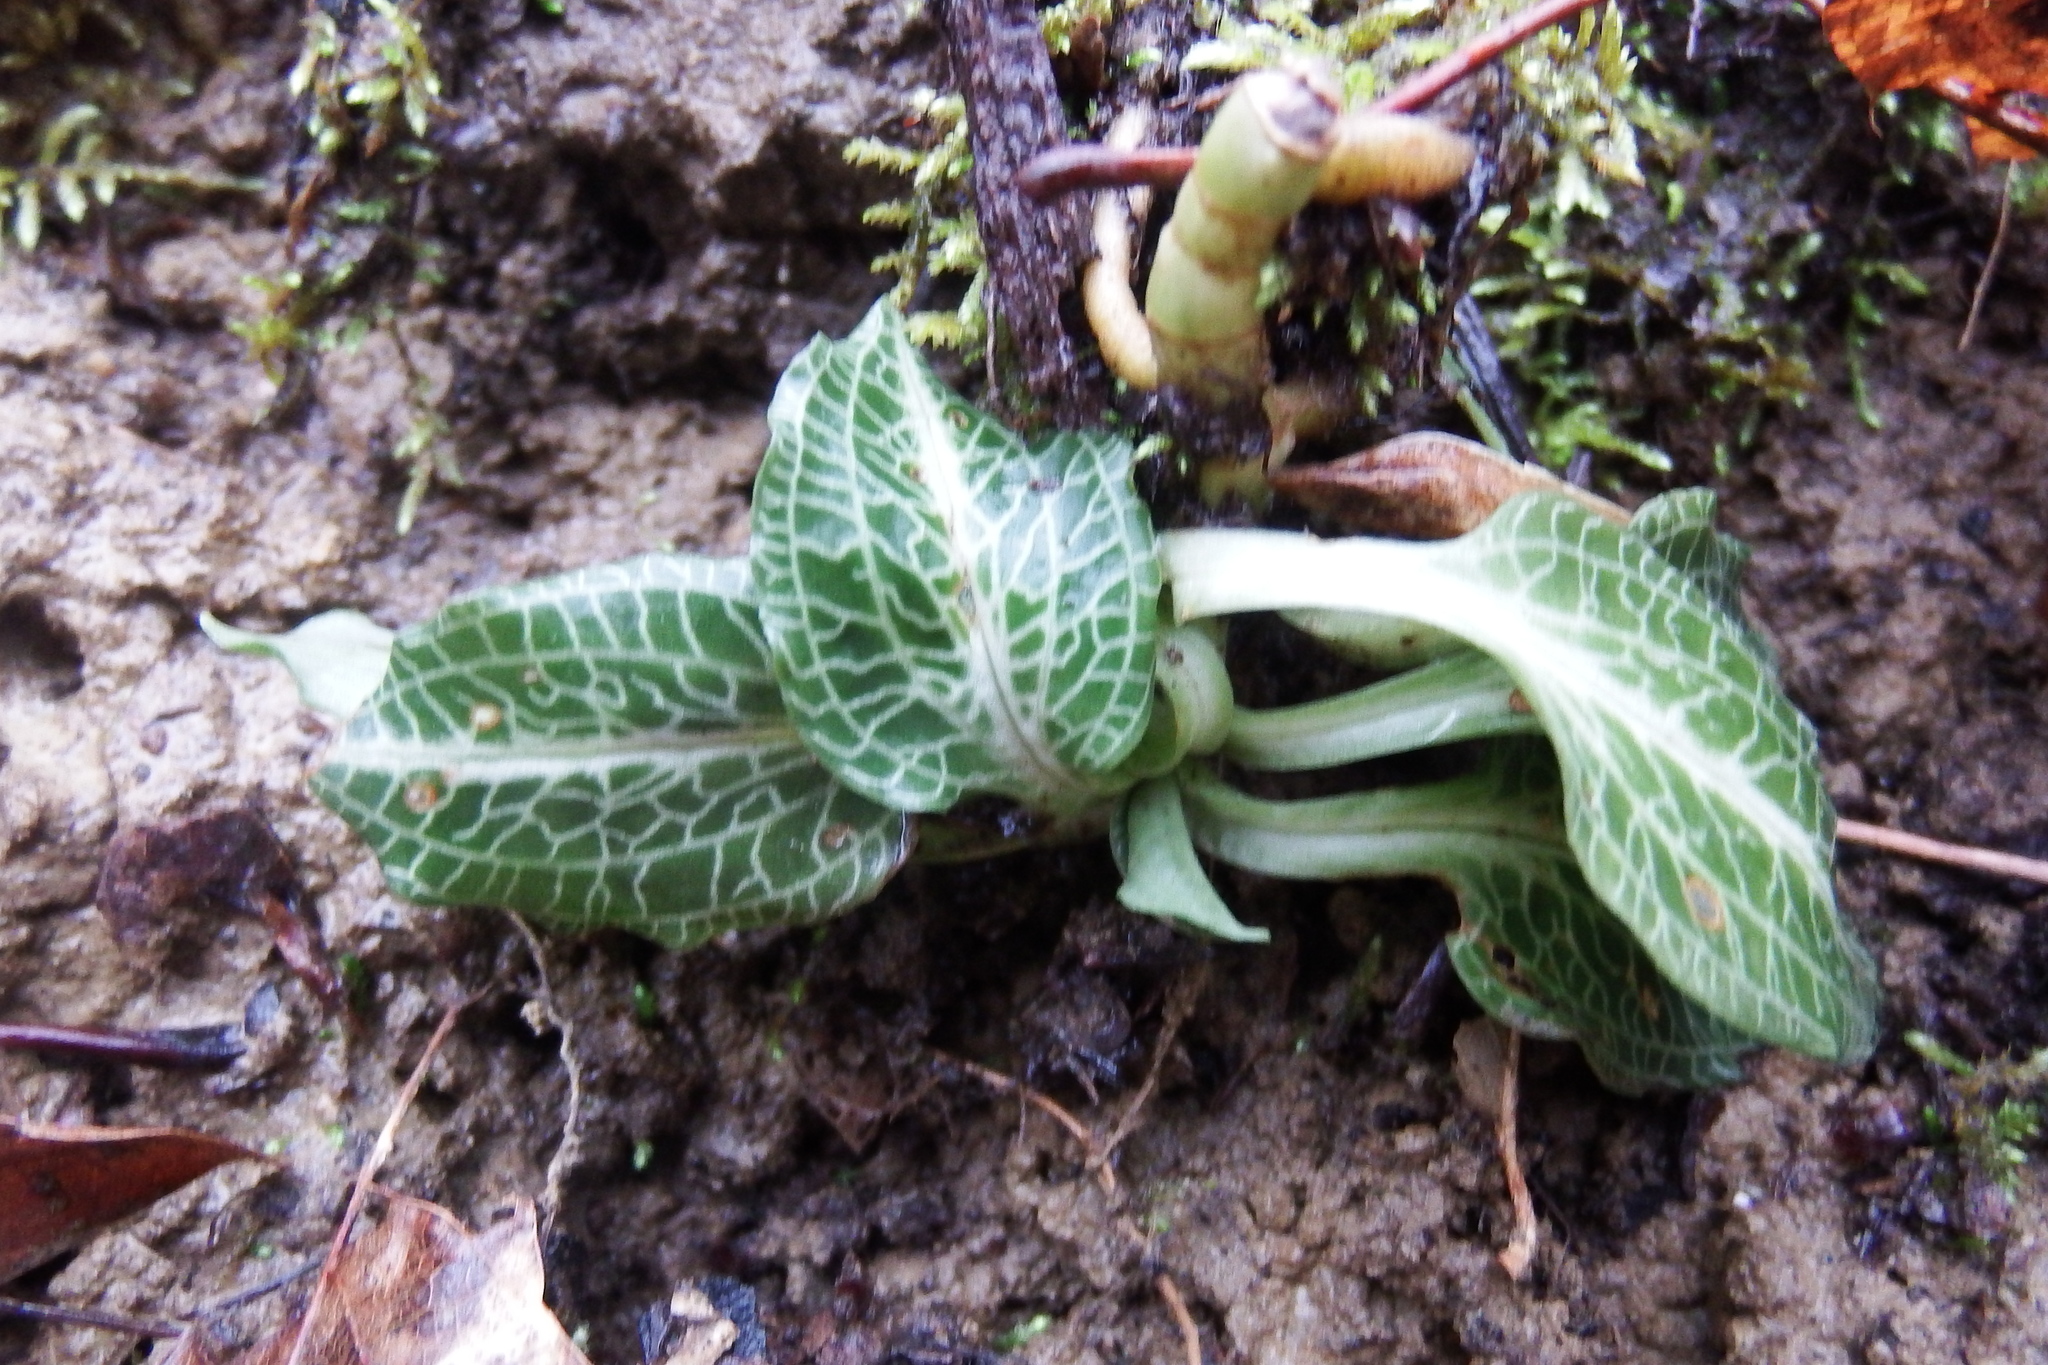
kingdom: Plantae
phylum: Tracheophyta
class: Liliopsida
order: Asparagales
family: Orchidaceae
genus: Goodyera
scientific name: Goodyera pubescens
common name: Downy rattlesnake-plantain
